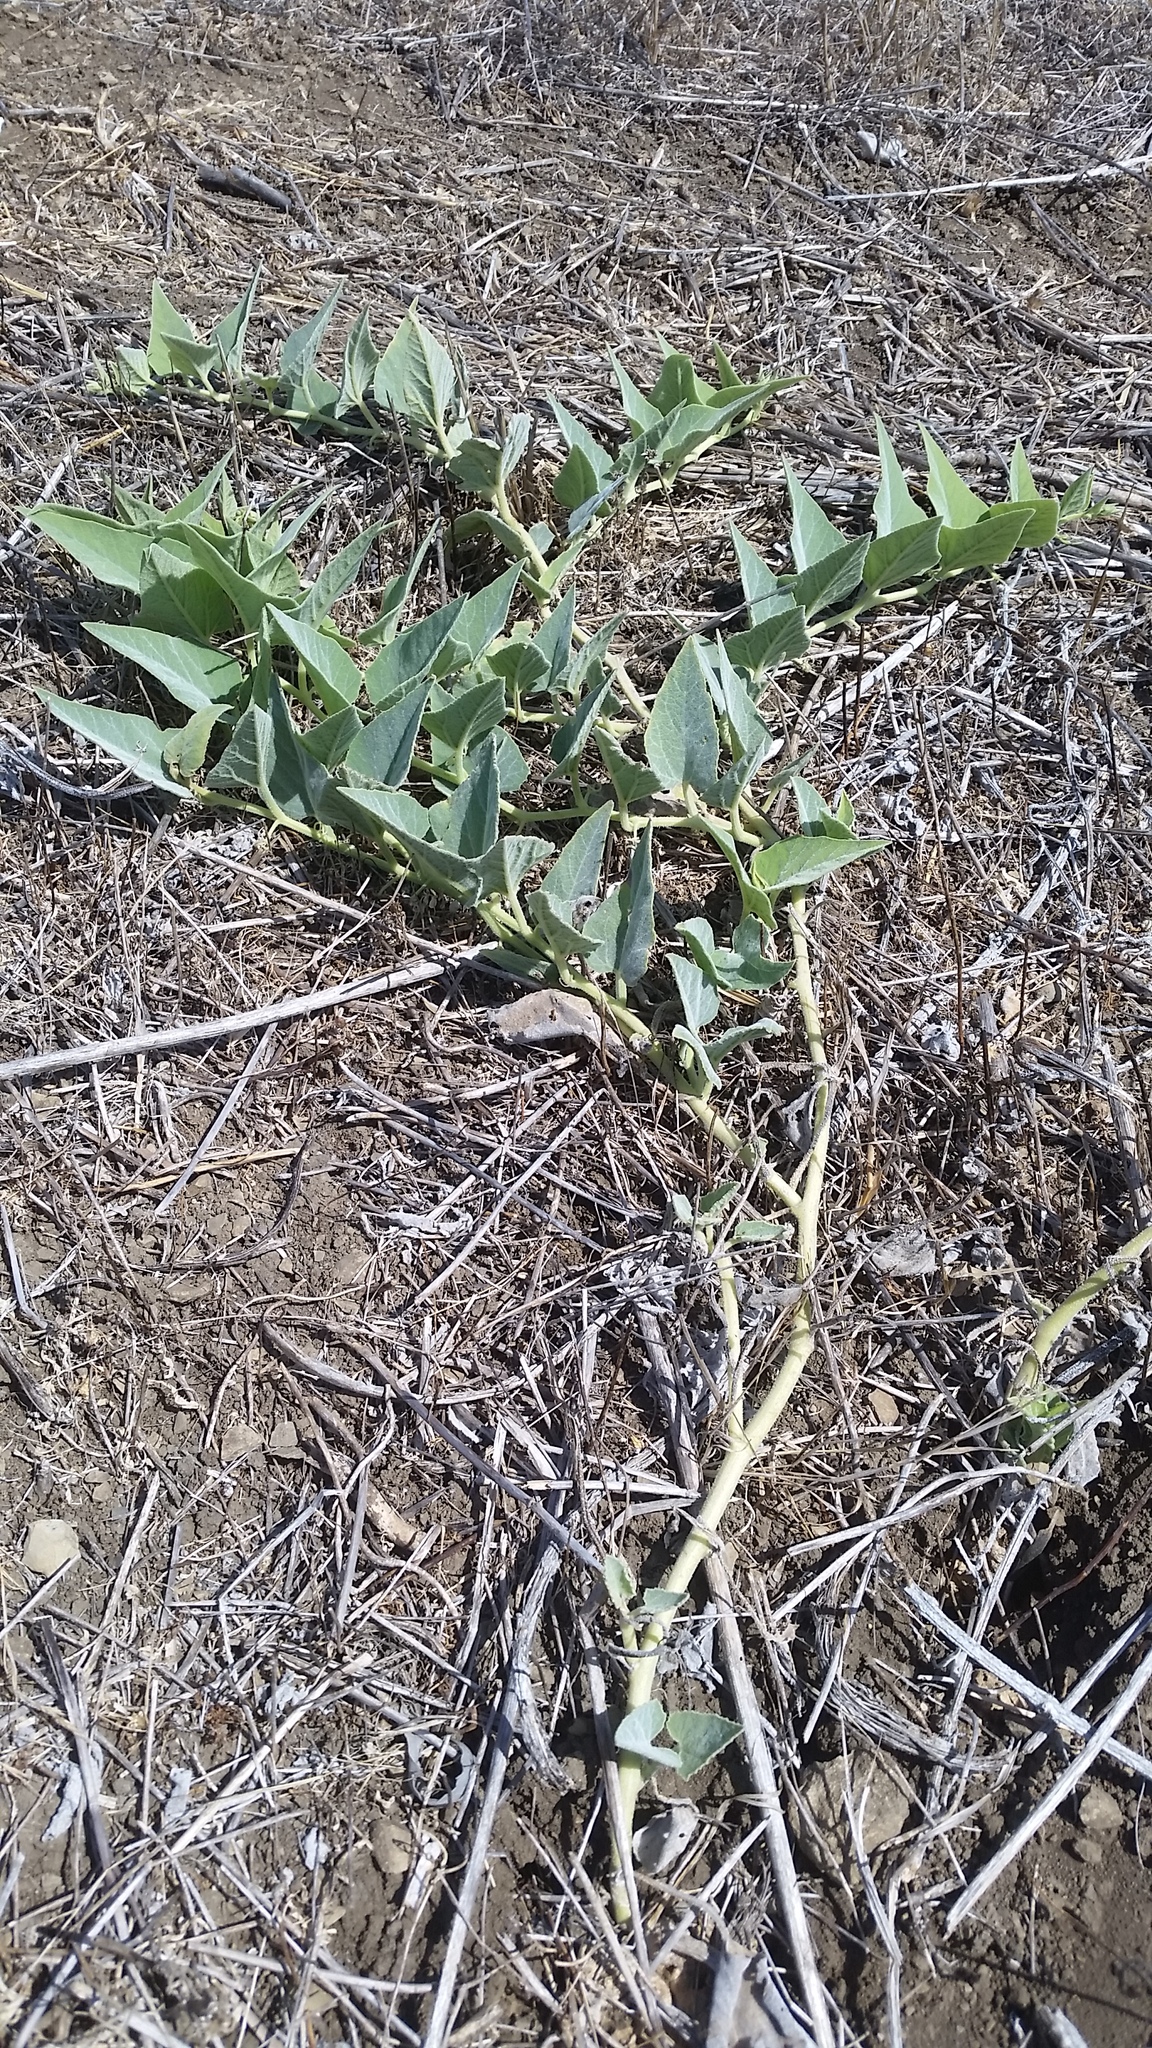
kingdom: Plantae
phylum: Tracheophyta
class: Magnoliopsida
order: Cucurbitales
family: Cucurbitaceae
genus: Cucurbita
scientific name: Cucurbita foetidissima
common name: Buffalo gourd
